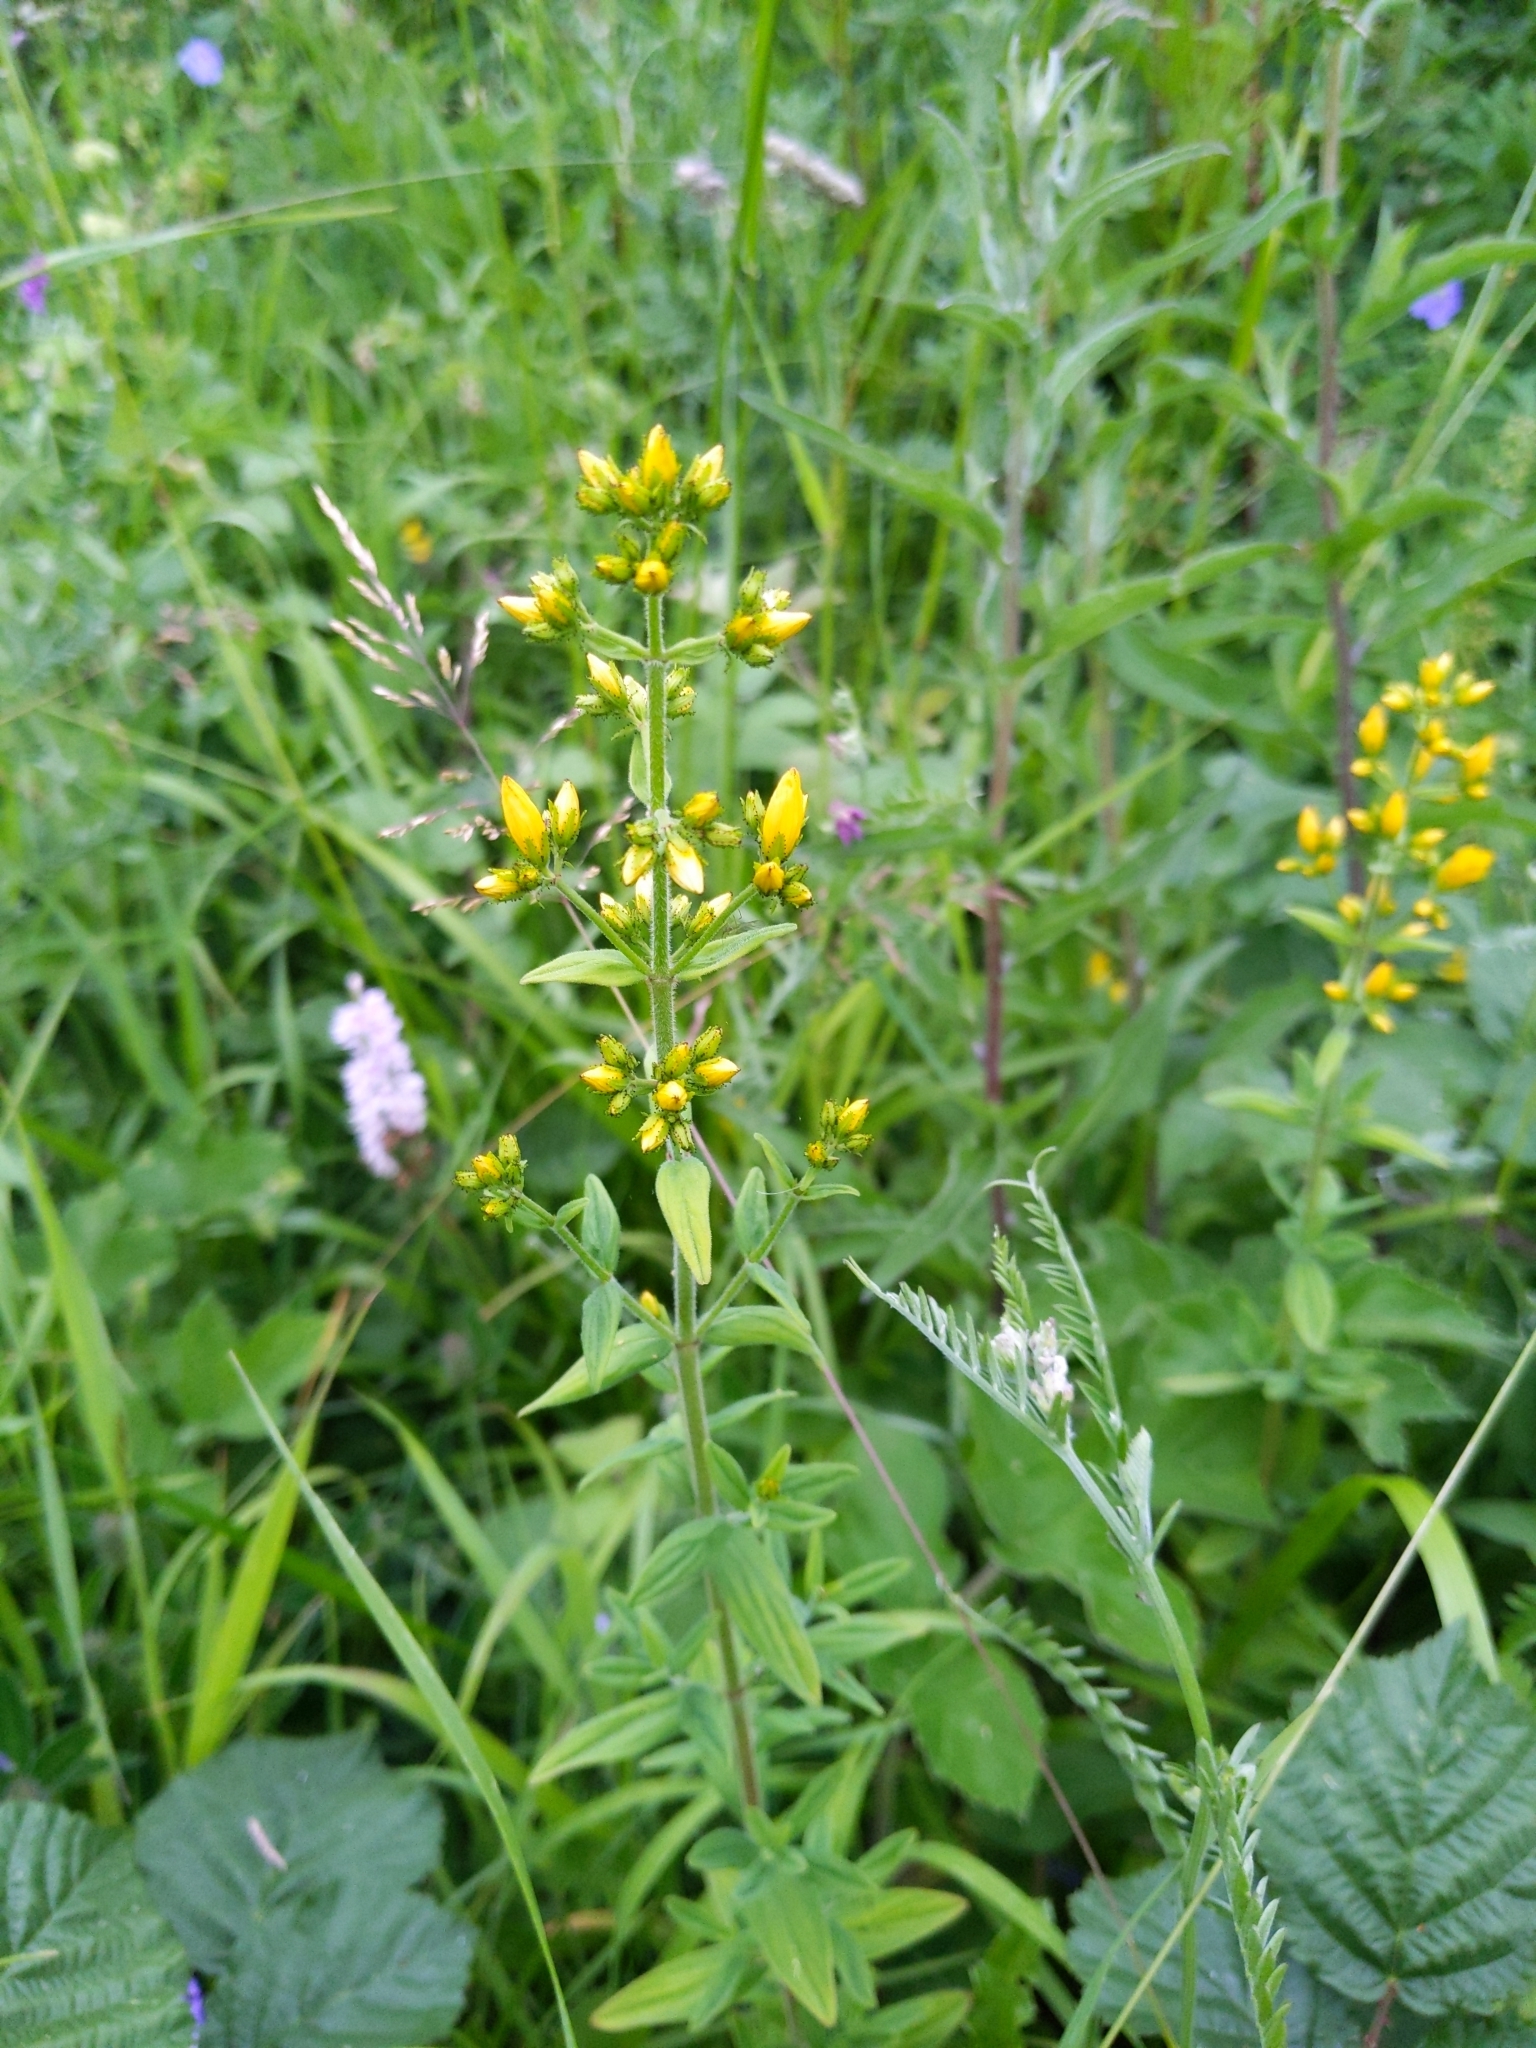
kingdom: Plantae
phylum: Tracheophyta
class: Magnoliopsida
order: Malpighiales
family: Hypericaceae
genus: Hypericum
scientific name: Hypericum hirsutum
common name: Hairy st. john's-wort
